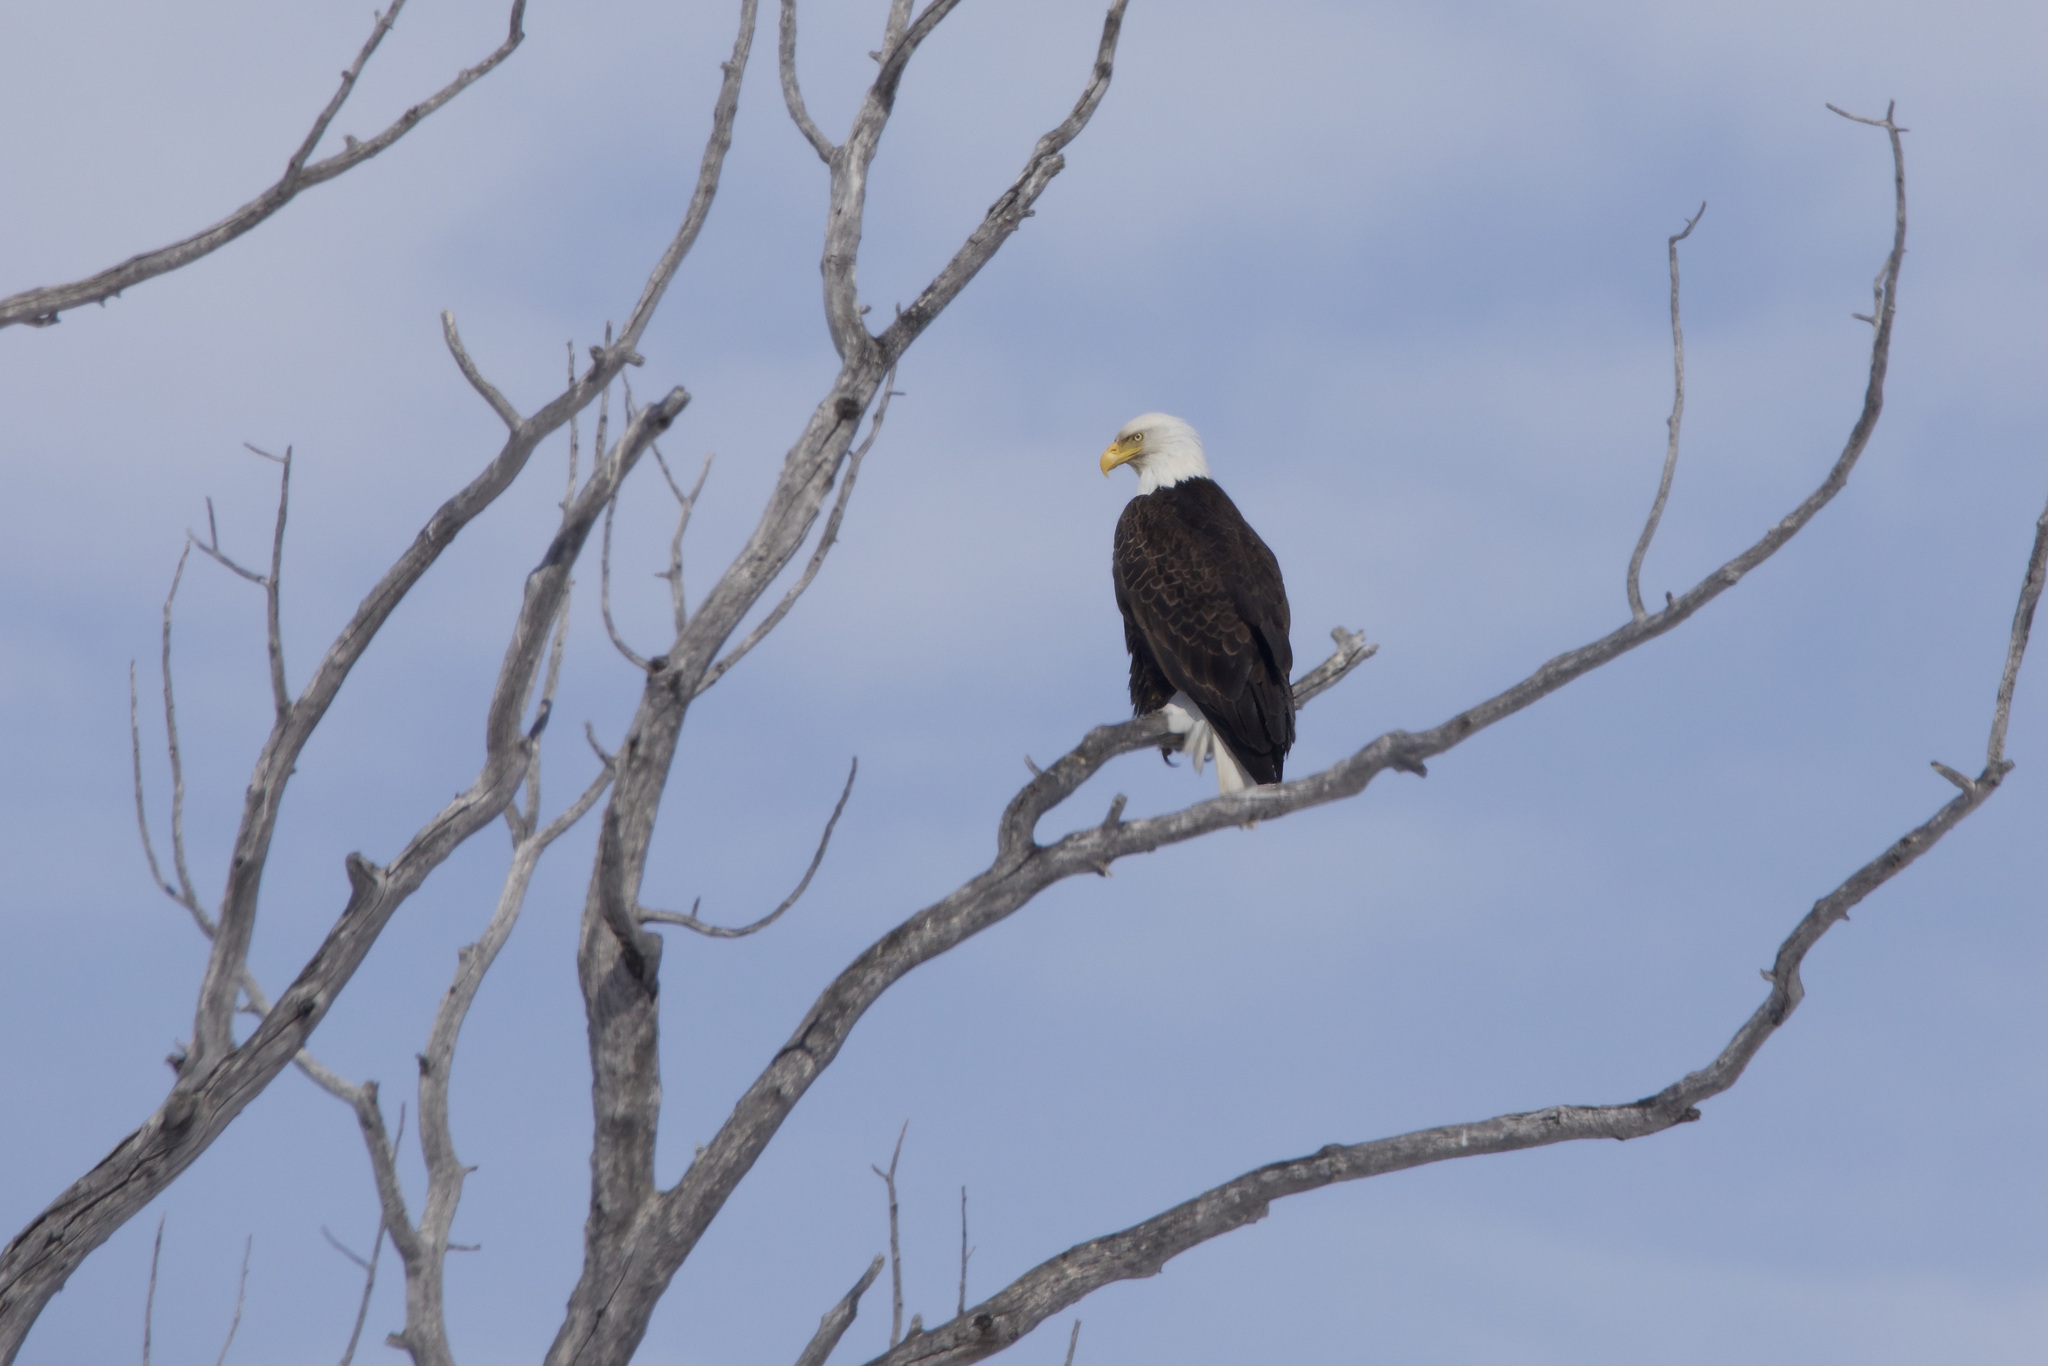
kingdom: Animalia
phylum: Chordata
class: Aves
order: Accipitriformes
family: Accipitridae
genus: Haliaeetus
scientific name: Haliaeetus leucocephalus
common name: Bald eagle
